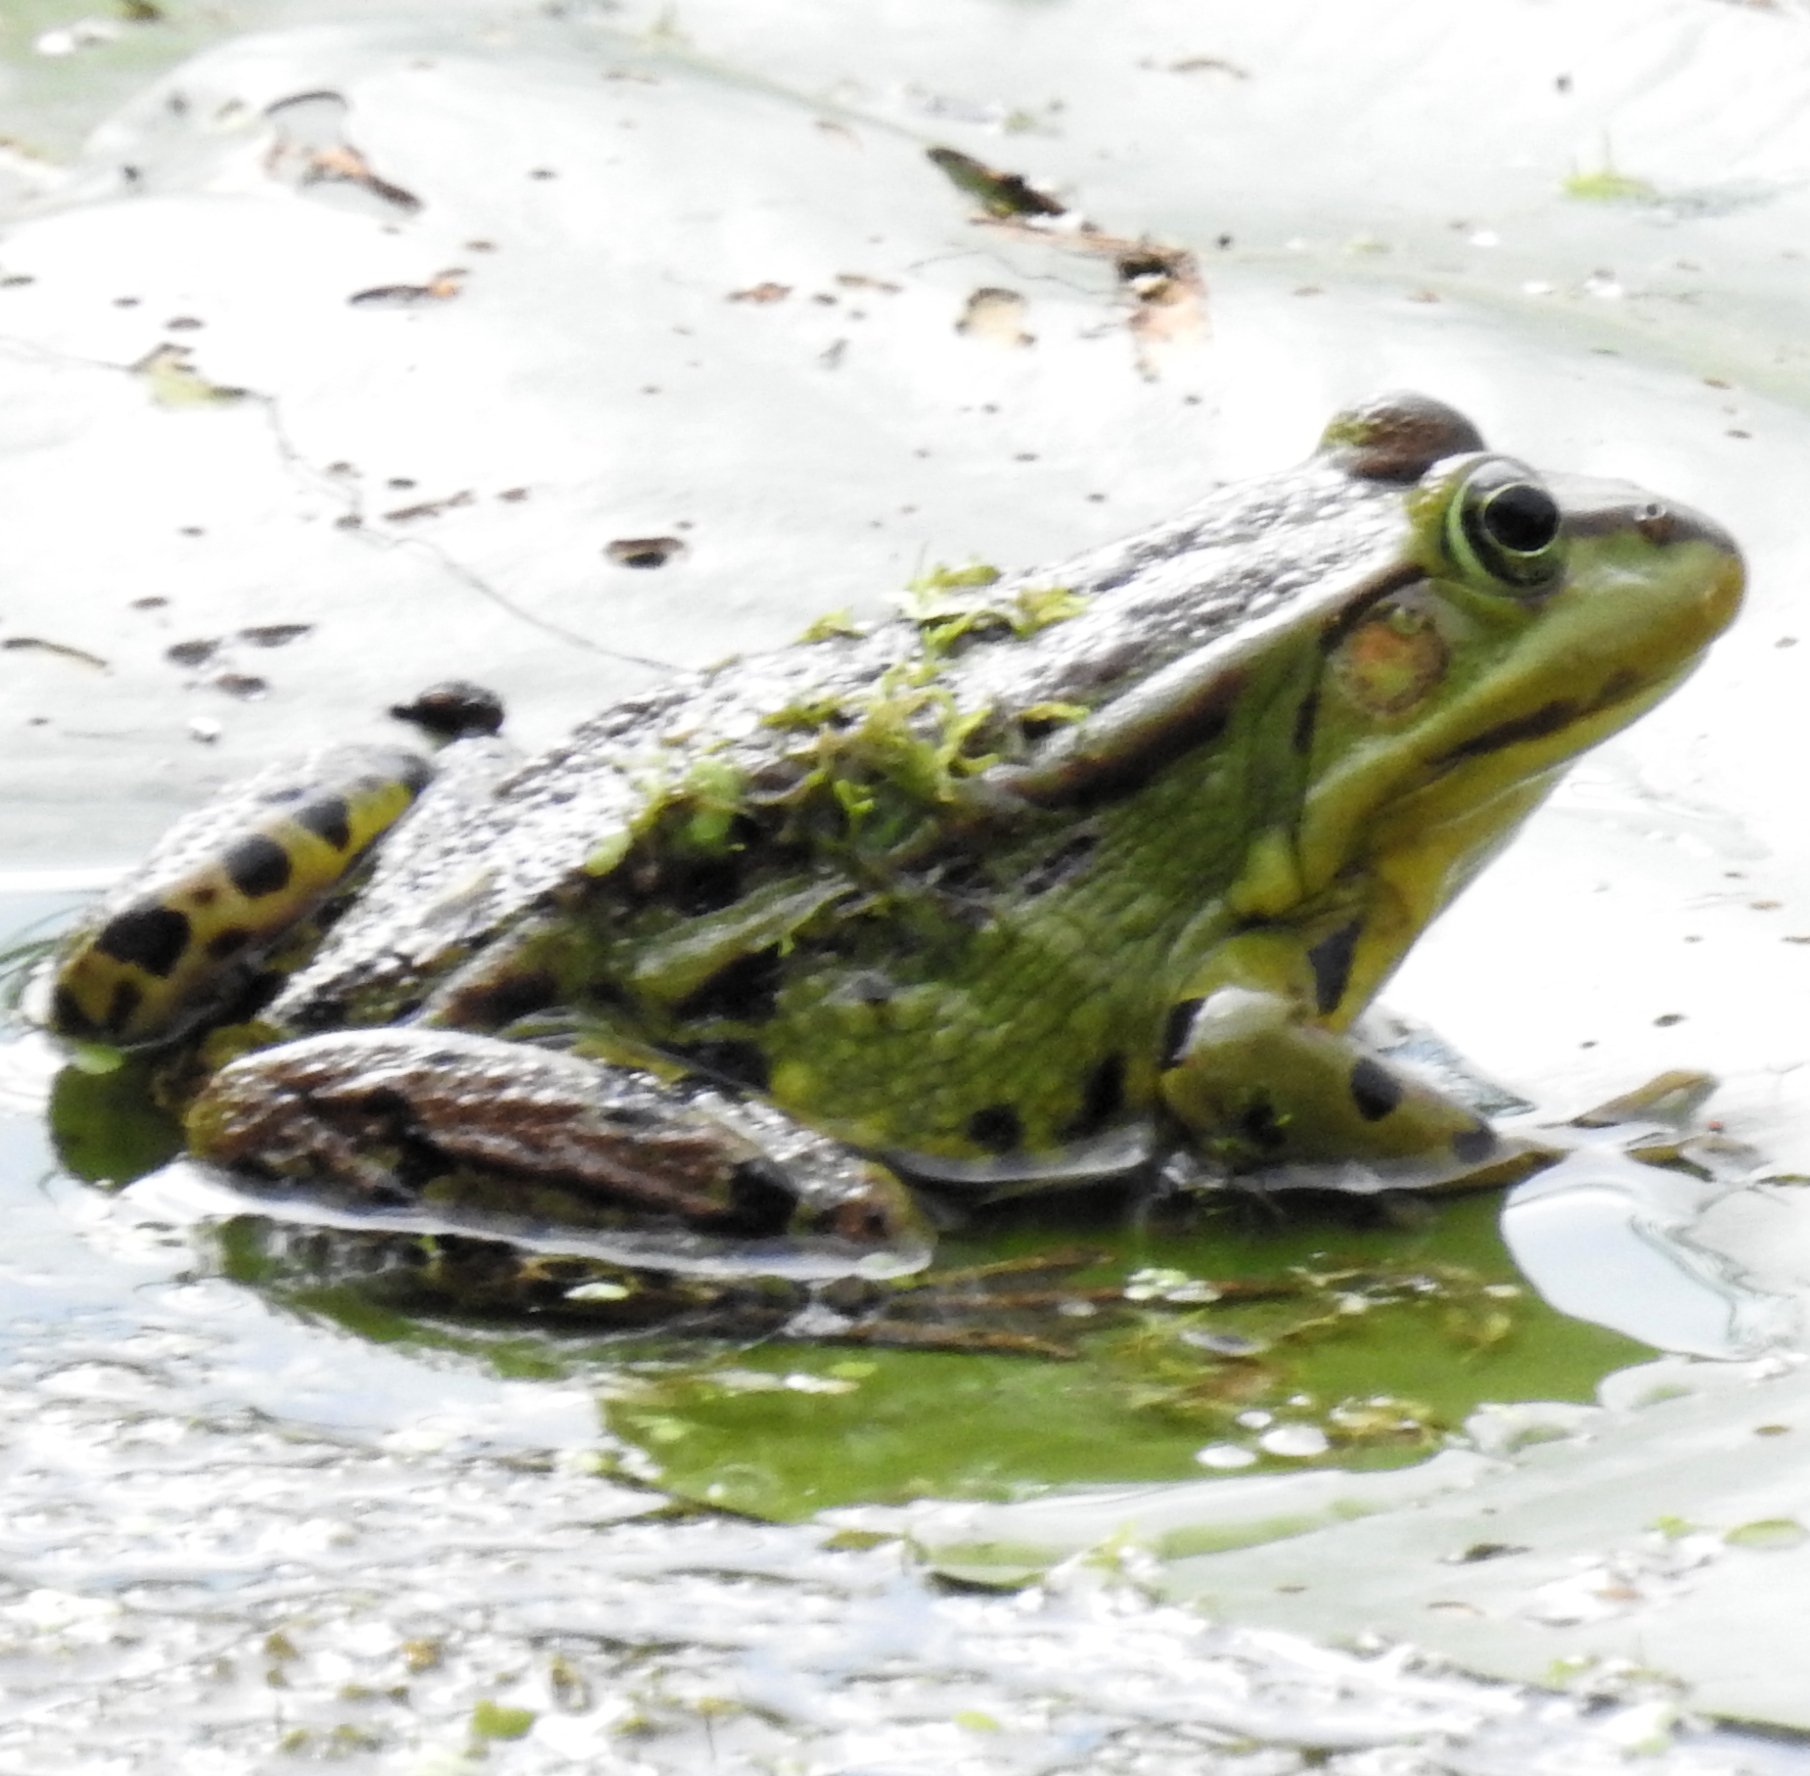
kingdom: Animalia
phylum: Chordata
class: Amphibia
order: Anura
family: Ranidae
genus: Pelophylax
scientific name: Pelophylax
